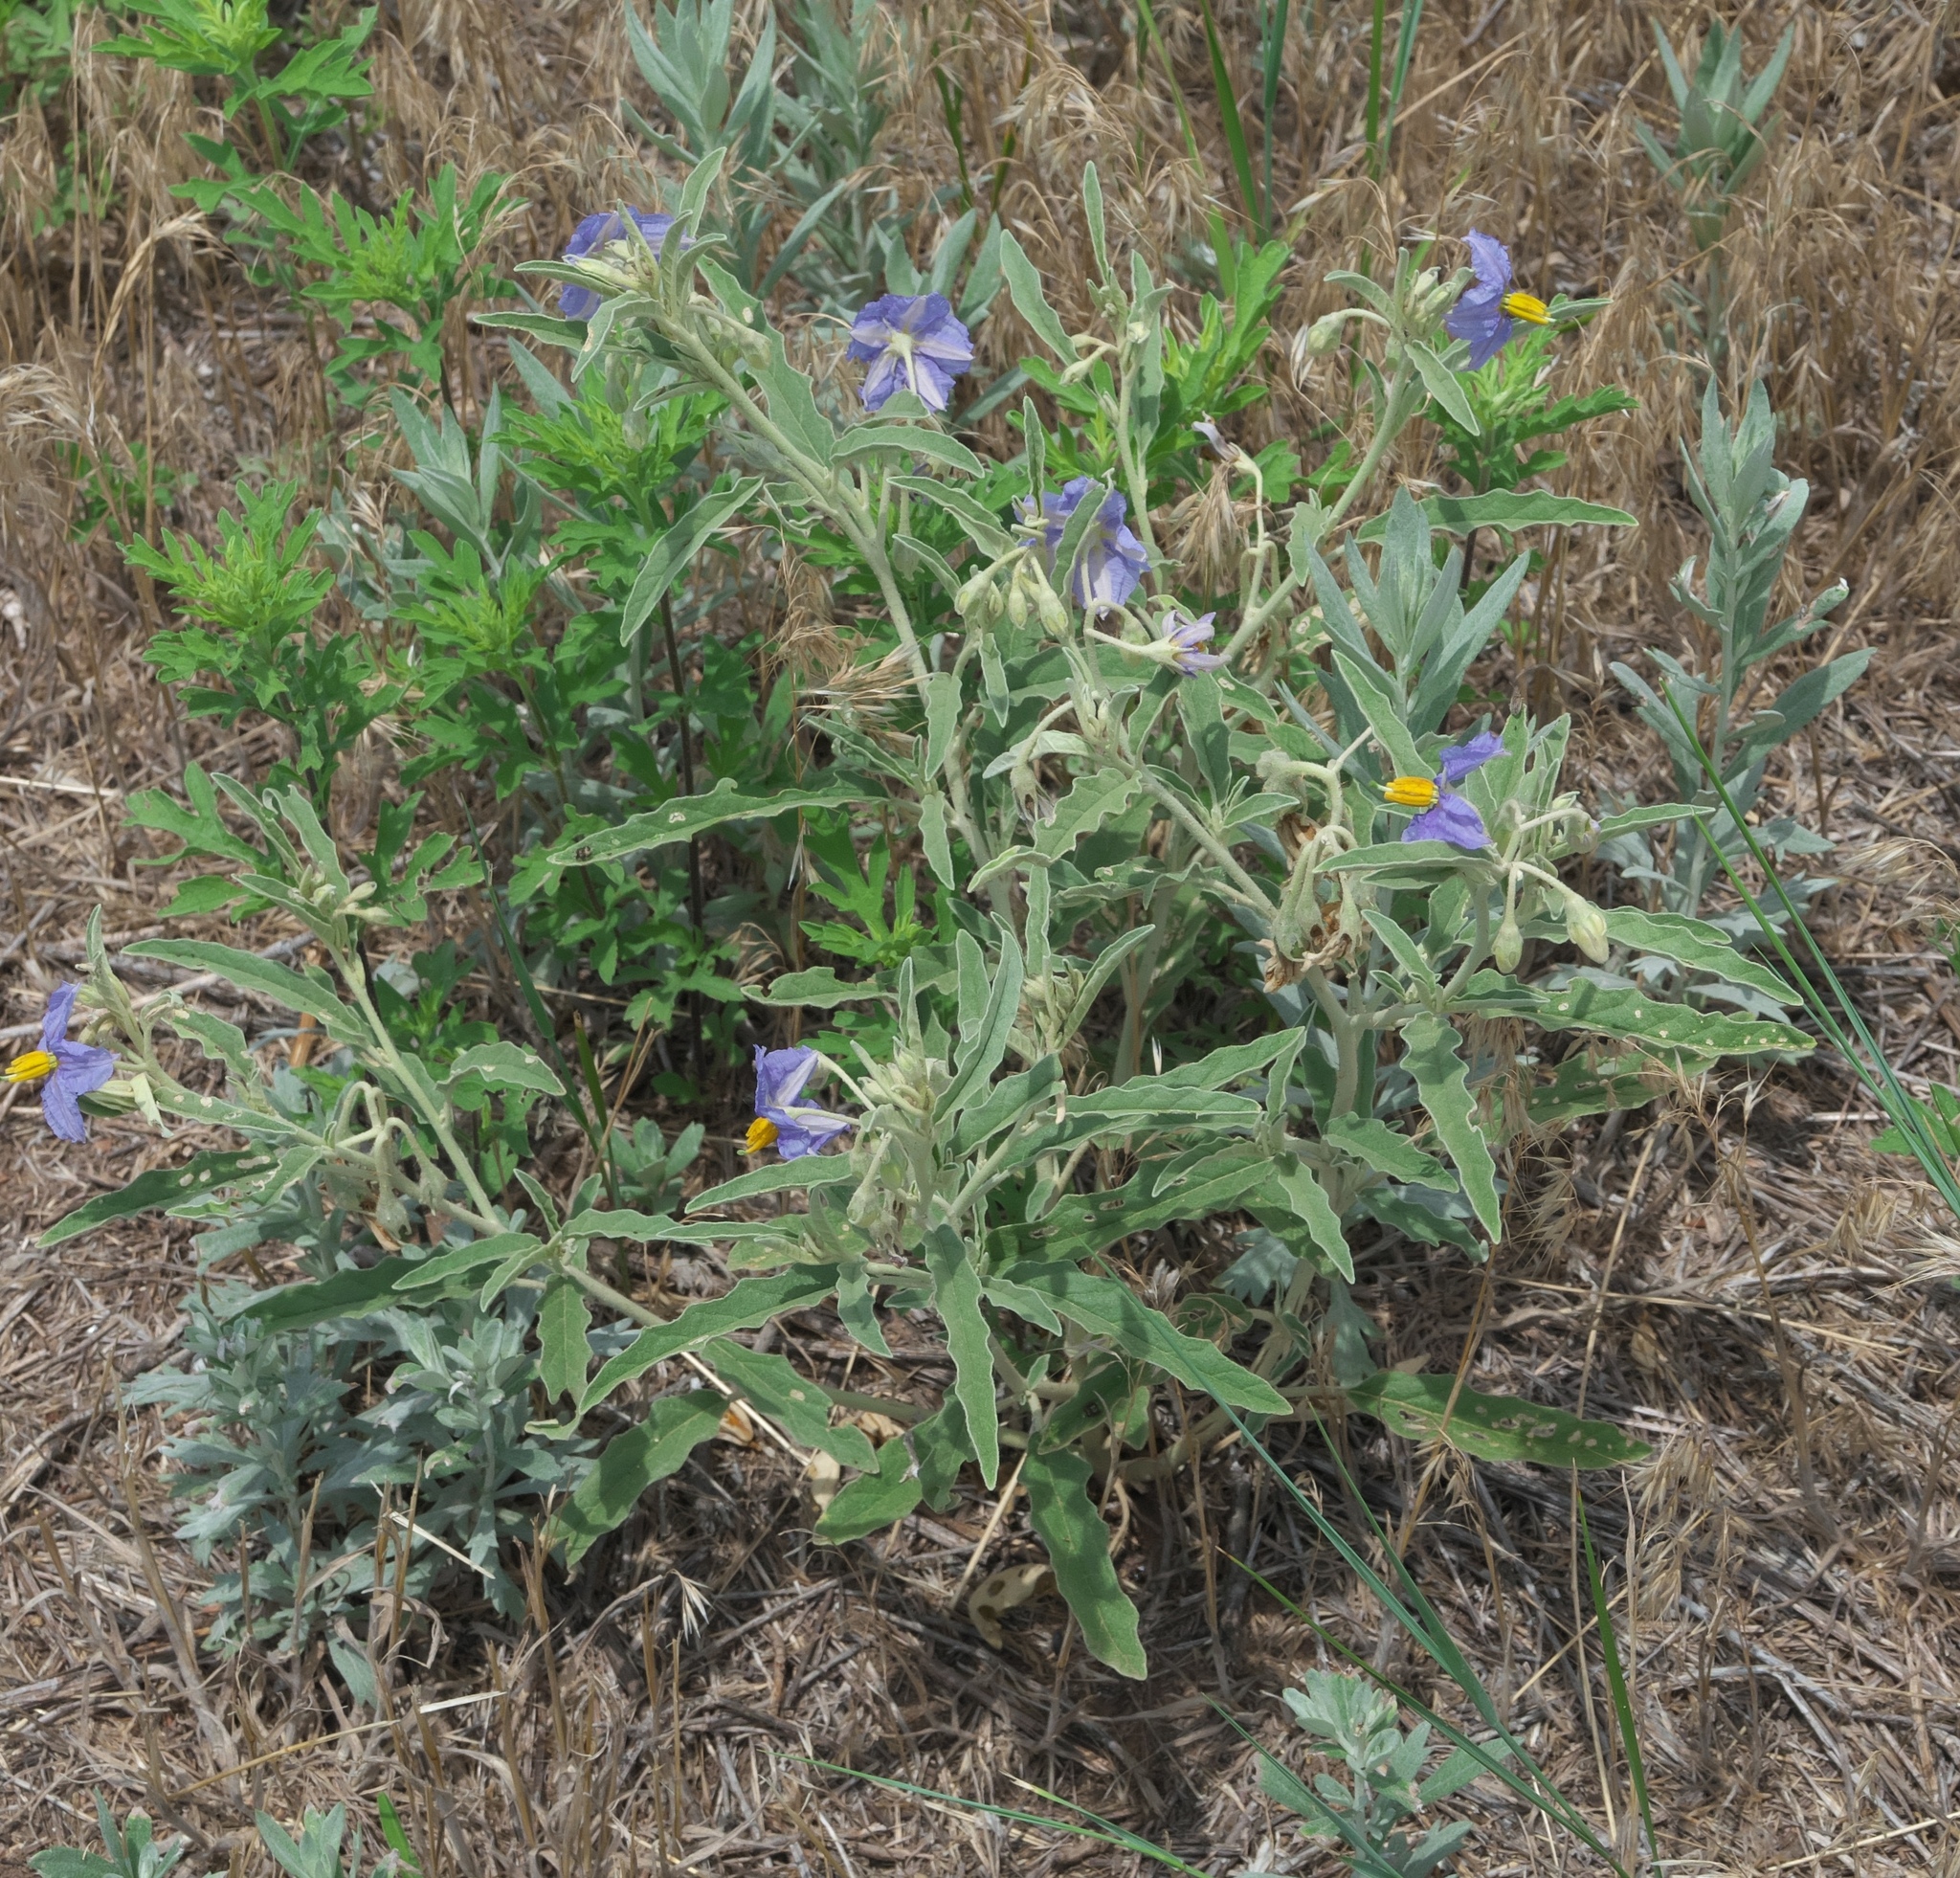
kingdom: Plantae
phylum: Tracheophyta
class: Magnoliopsida
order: Solanales
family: Solanaceae
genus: Solanum
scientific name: Solanum elaeagnifolium
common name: Silverleaf nightshade
